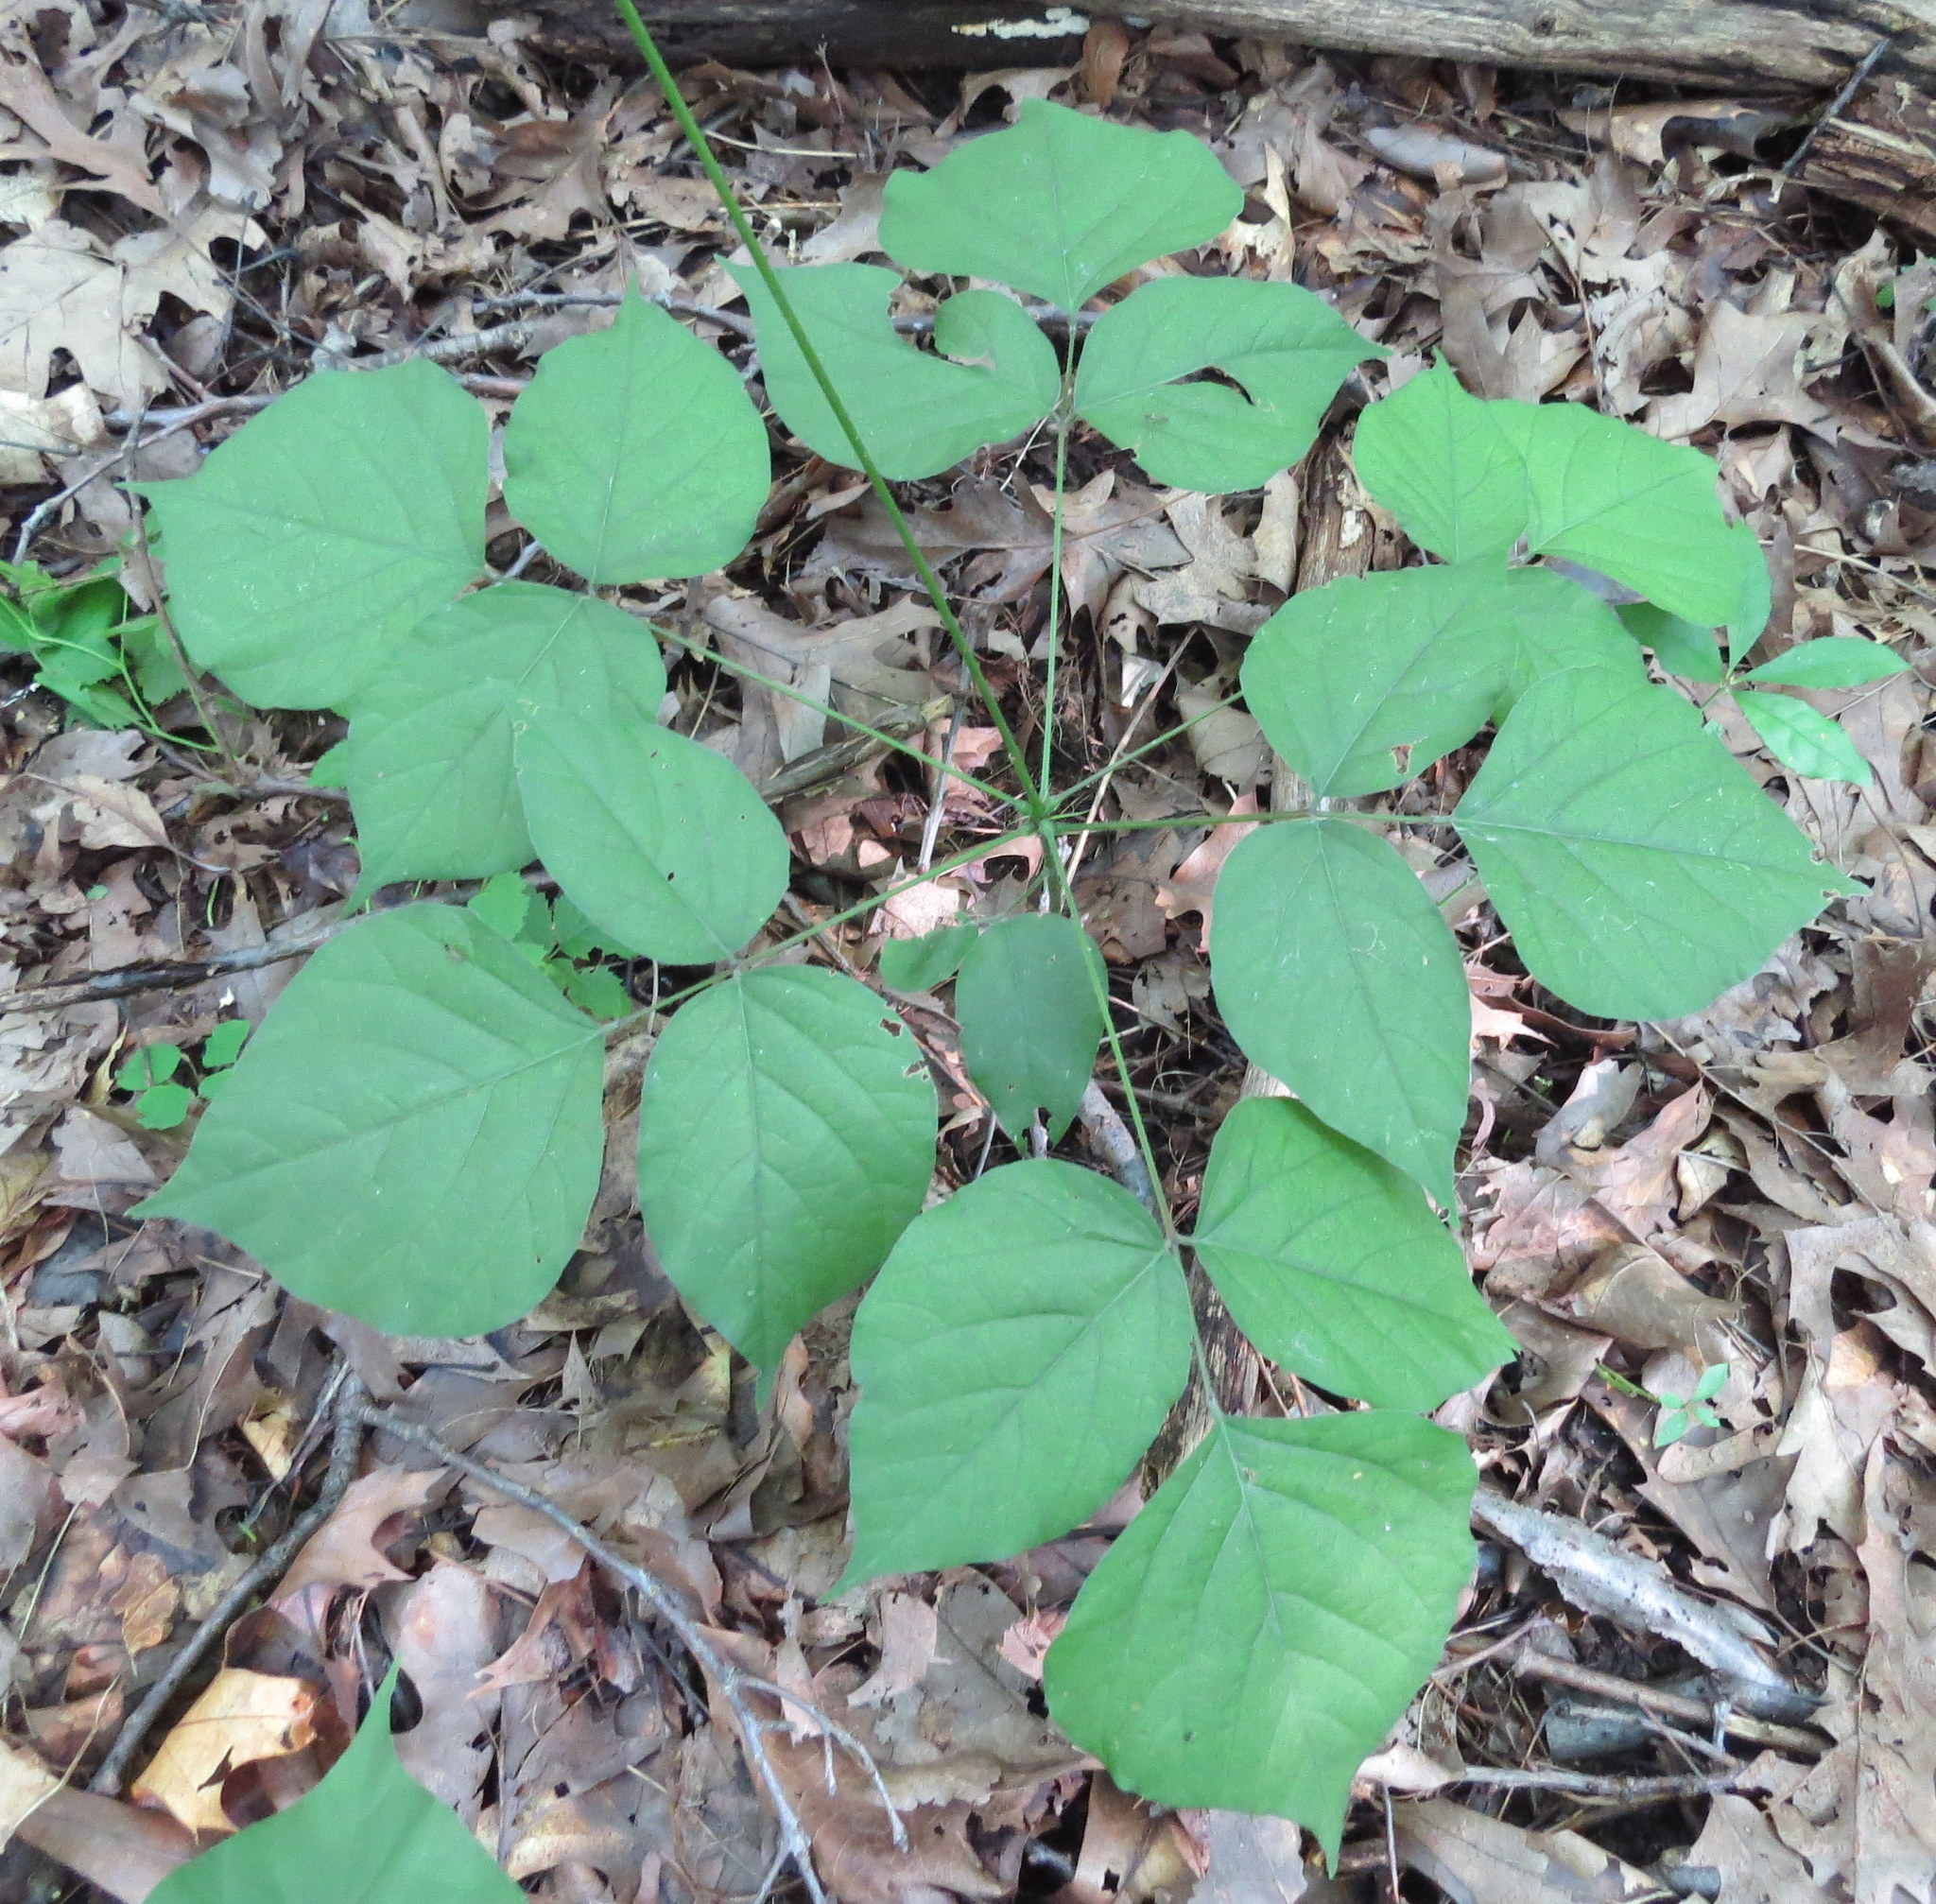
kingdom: Plantae
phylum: Tracheophyta
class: Magnoliopsida
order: Fabales
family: Fabaceae
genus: Hylodesmum
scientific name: Hylodesmum glutinosum
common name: Clustered-leaved tick-trefoil
